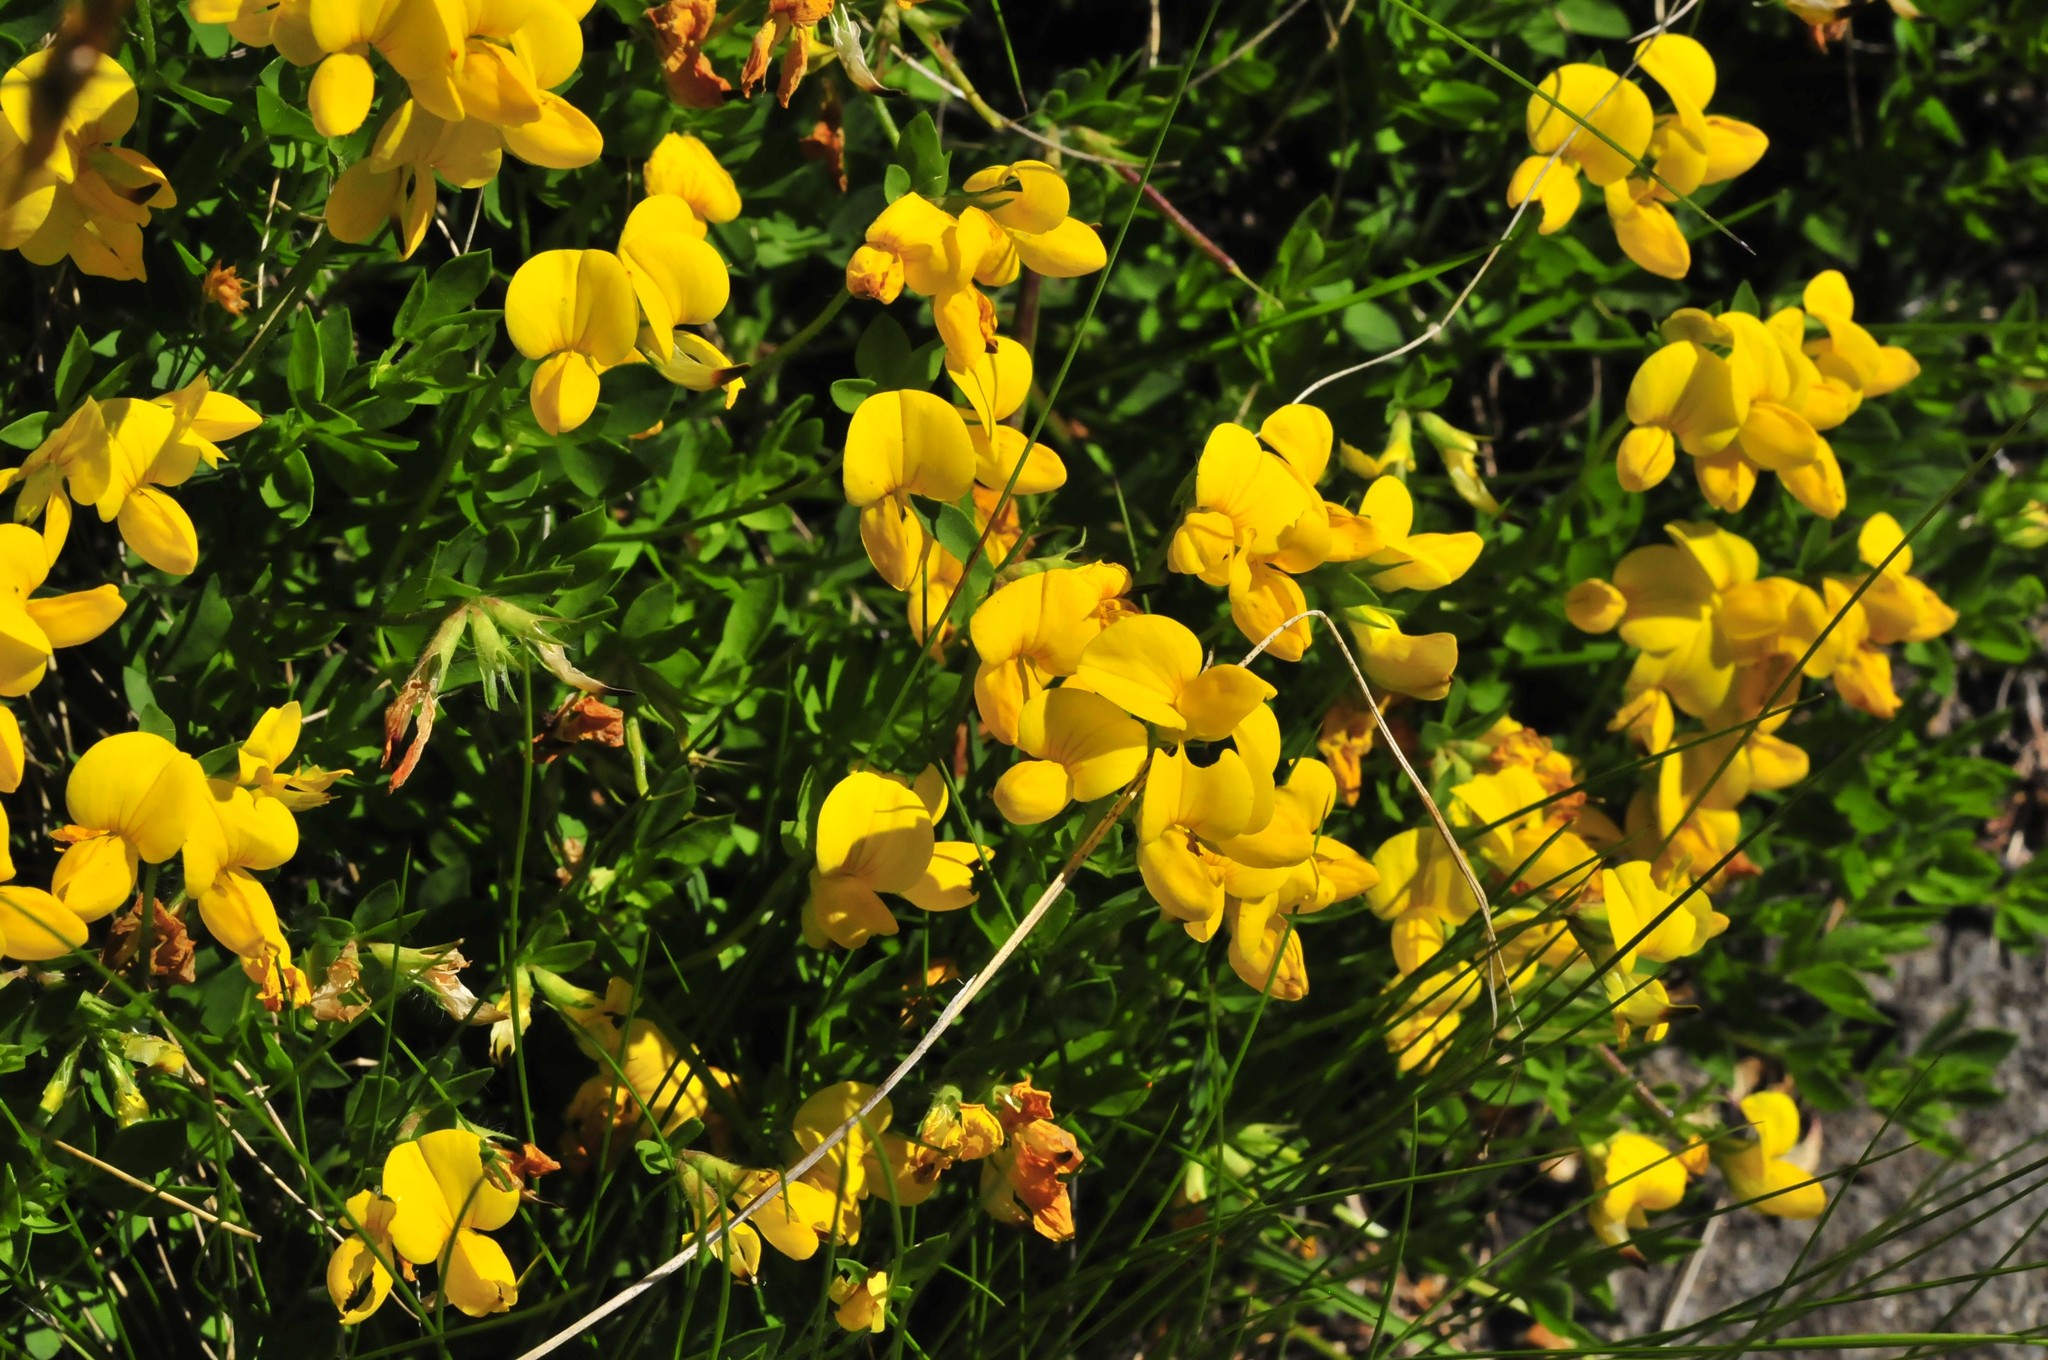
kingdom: Plantae
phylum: Tracheophyta
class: Magnoliopsida
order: Fabales
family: Fabaceae
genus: Lotus
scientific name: Lotus corniculatus
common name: Common bird's-foot-trefoil
